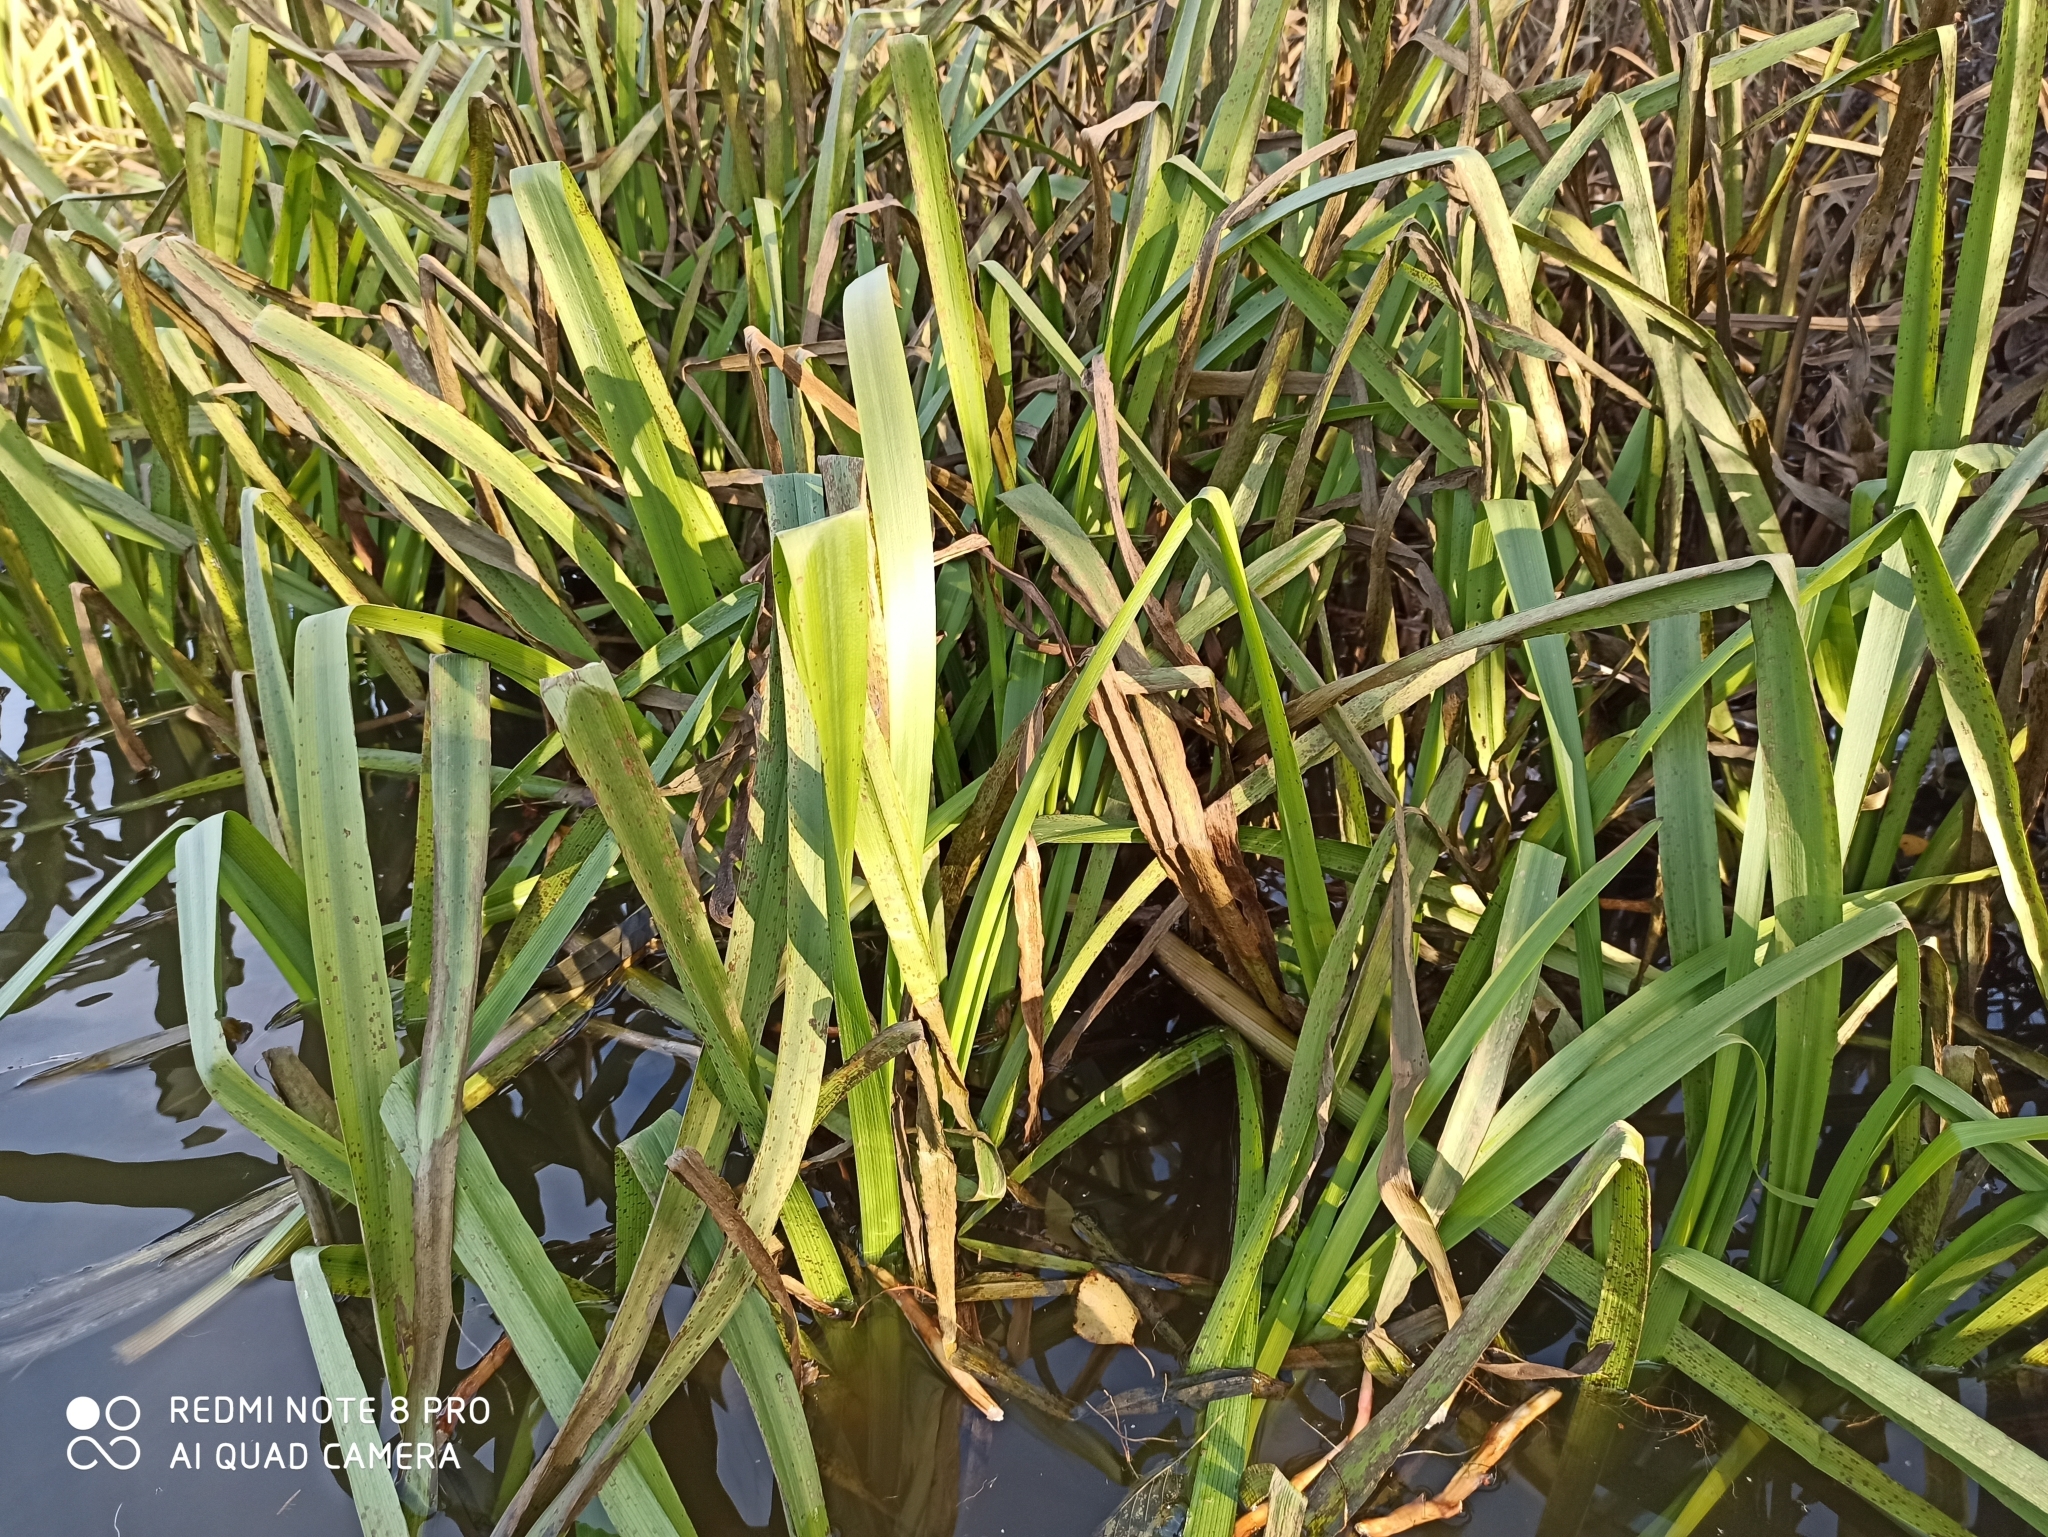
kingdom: Plantae
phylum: Tracheophyta
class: Liliopsida
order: Poales
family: Typhaceae
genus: Sparganium
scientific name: Sparganium erectum
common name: Branched bur-reed
